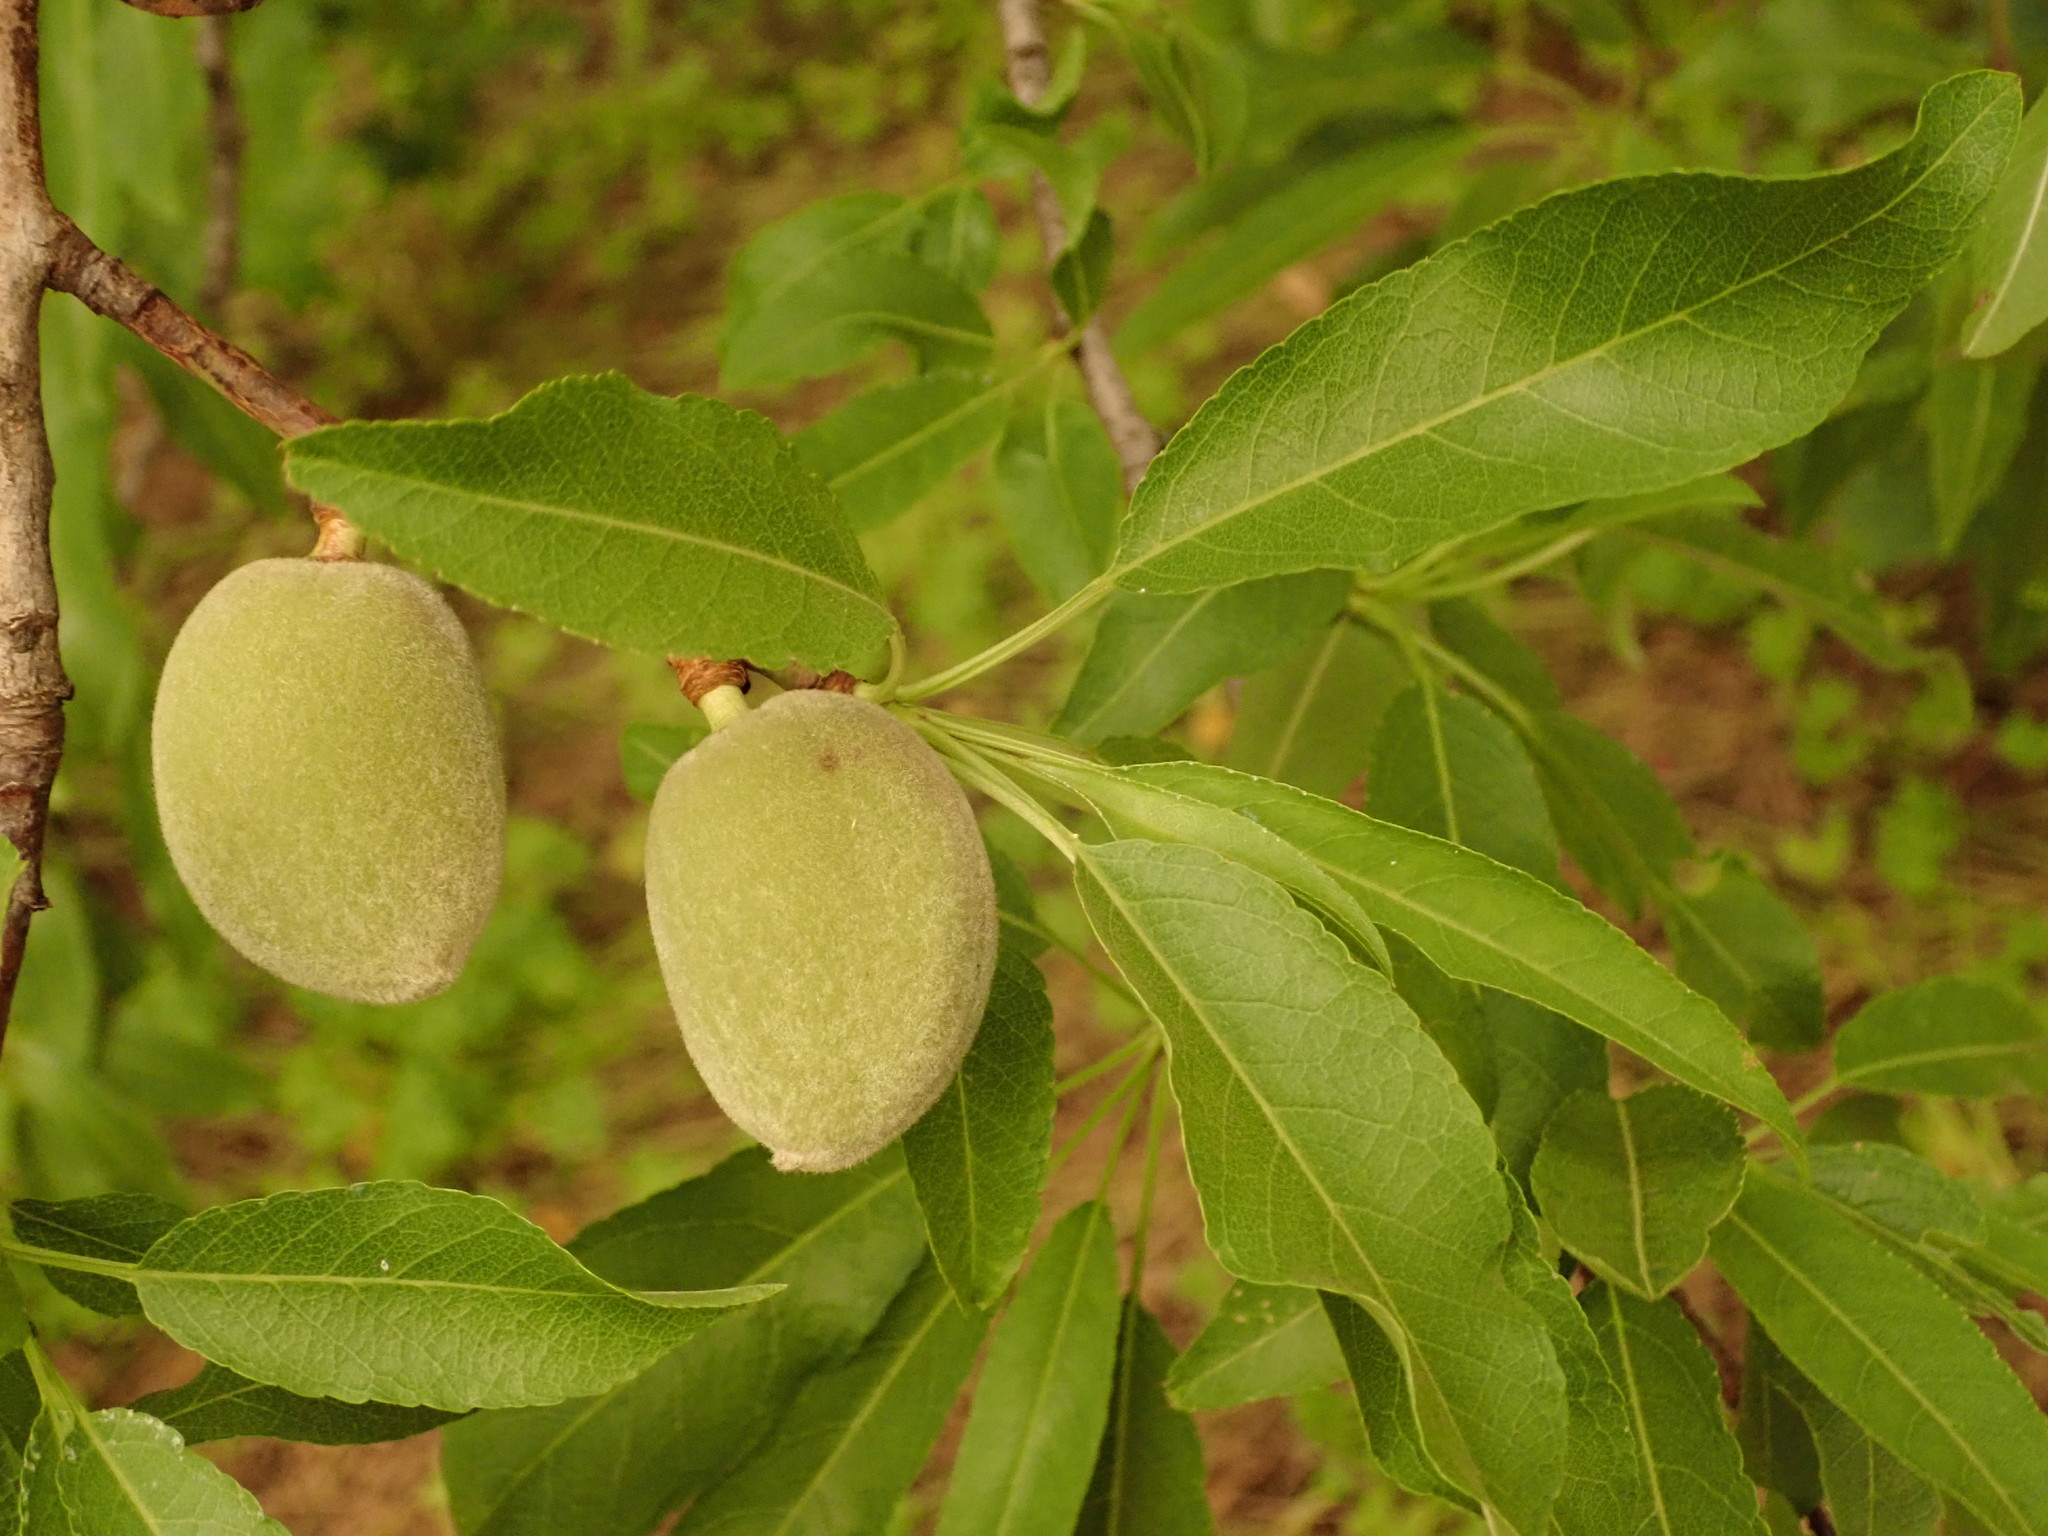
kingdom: Plantae
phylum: Tracheophyta
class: Magnoliopsida
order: Rosales
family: Rosaceae
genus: Prunus
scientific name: Prunus amygdalus
